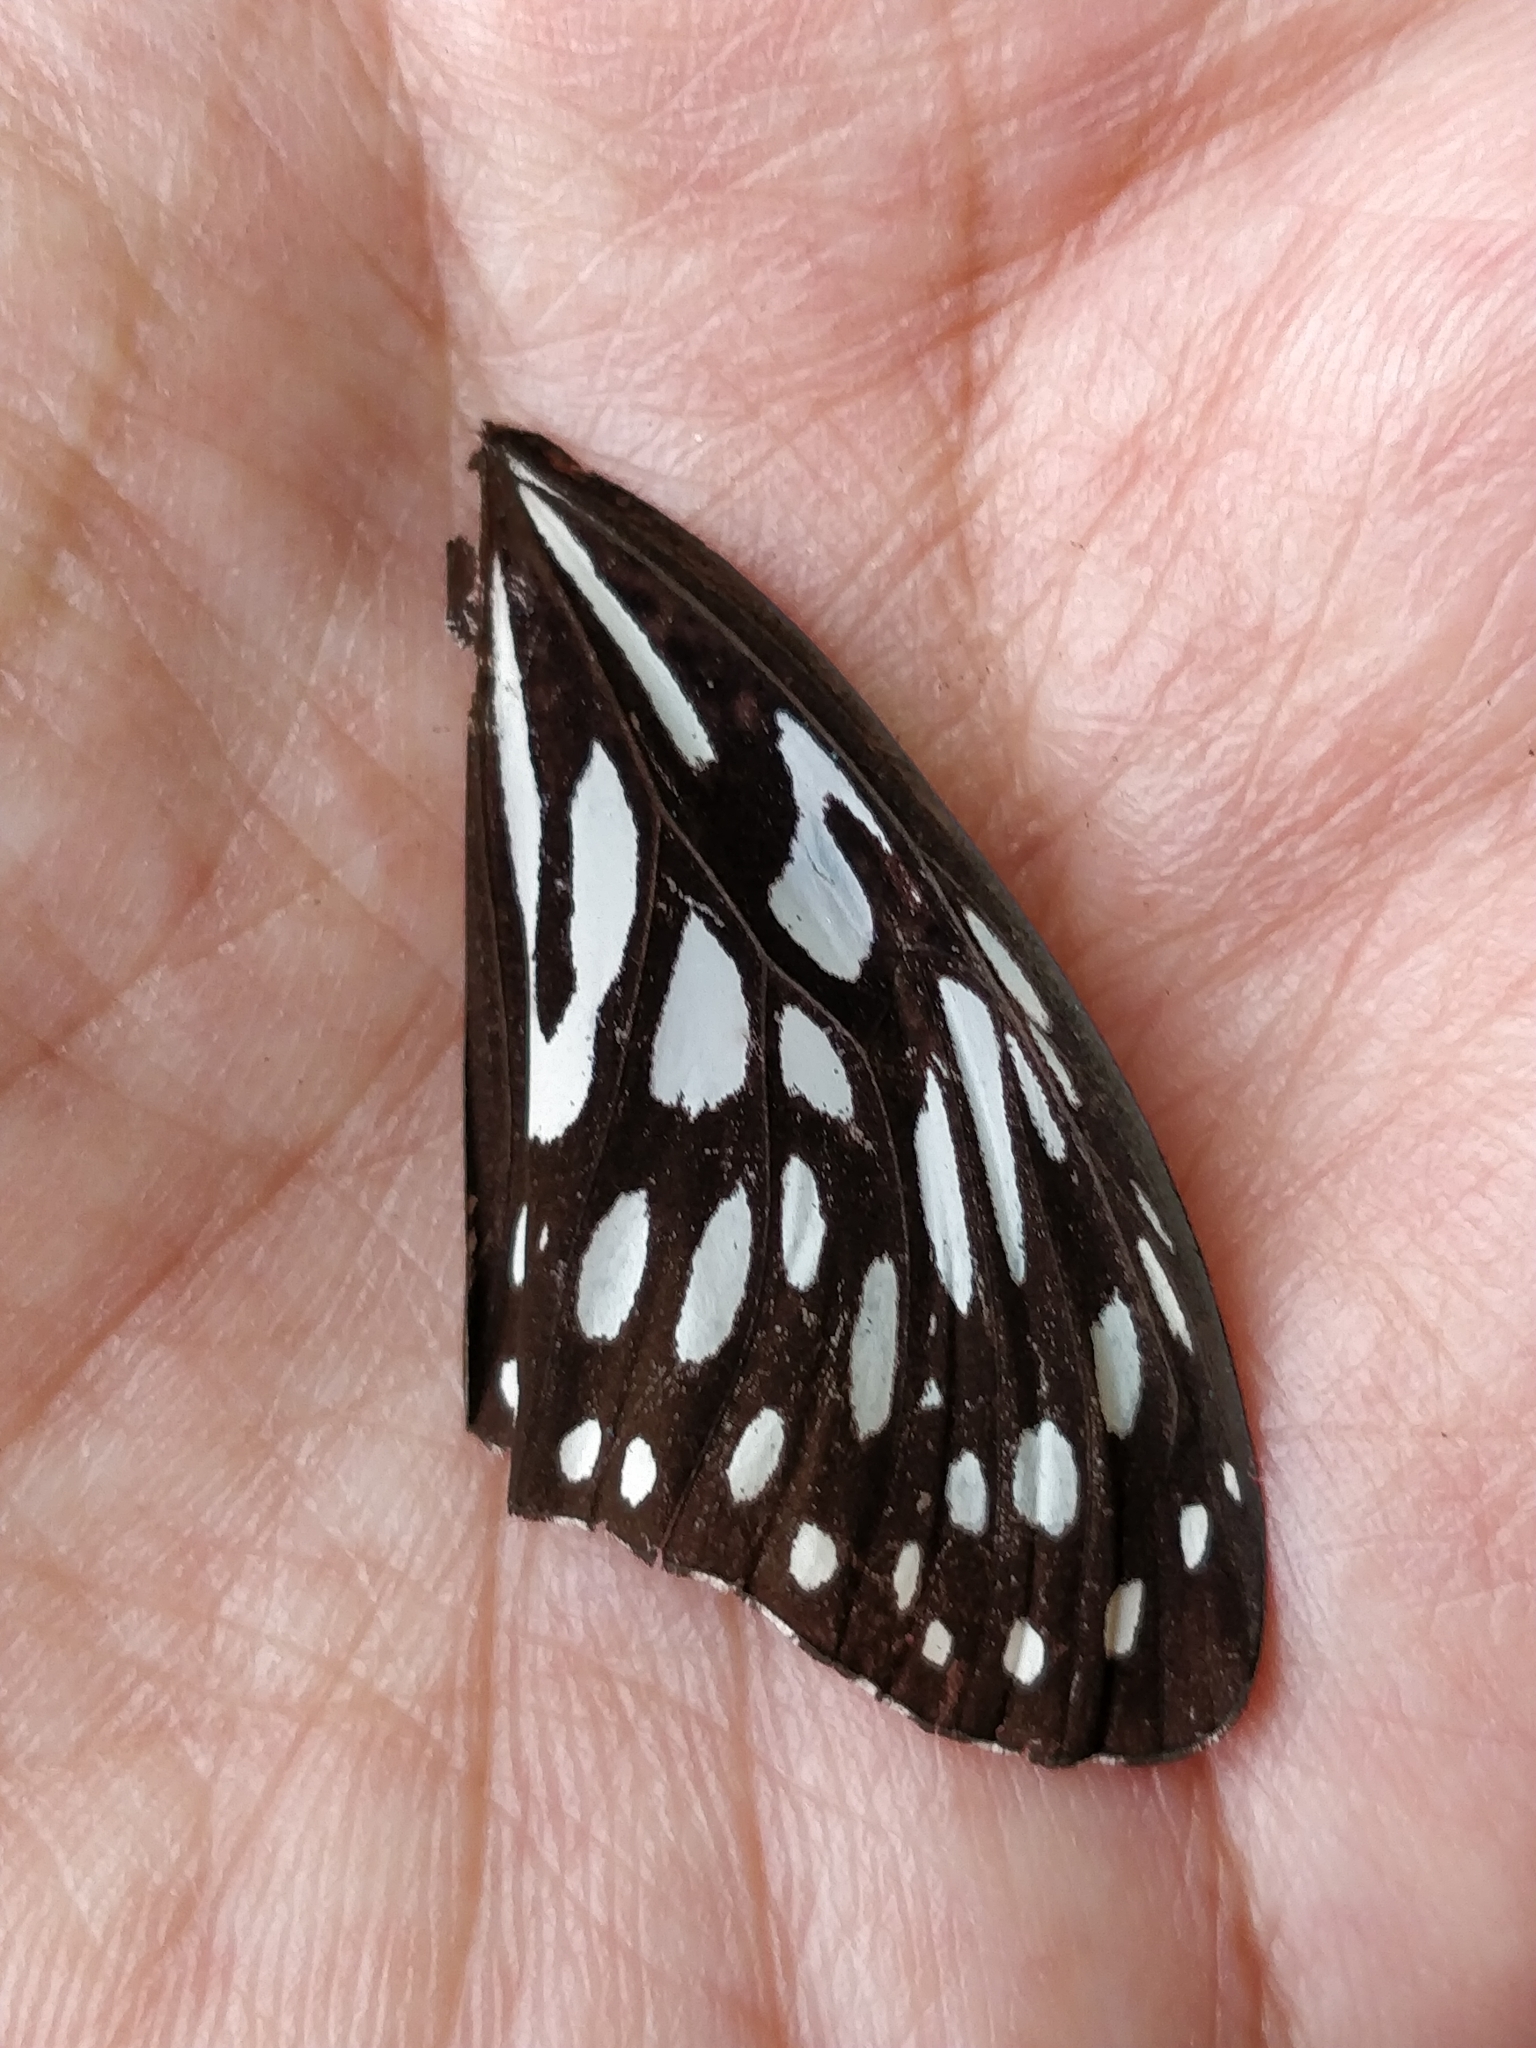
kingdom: Animalia
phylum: Arthropoda
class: Insecta
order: Lepidoptera
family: Nymphalidae
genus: Tirumala
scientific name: Tirumala septentrionis
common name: Dark blue tiger butterfly
